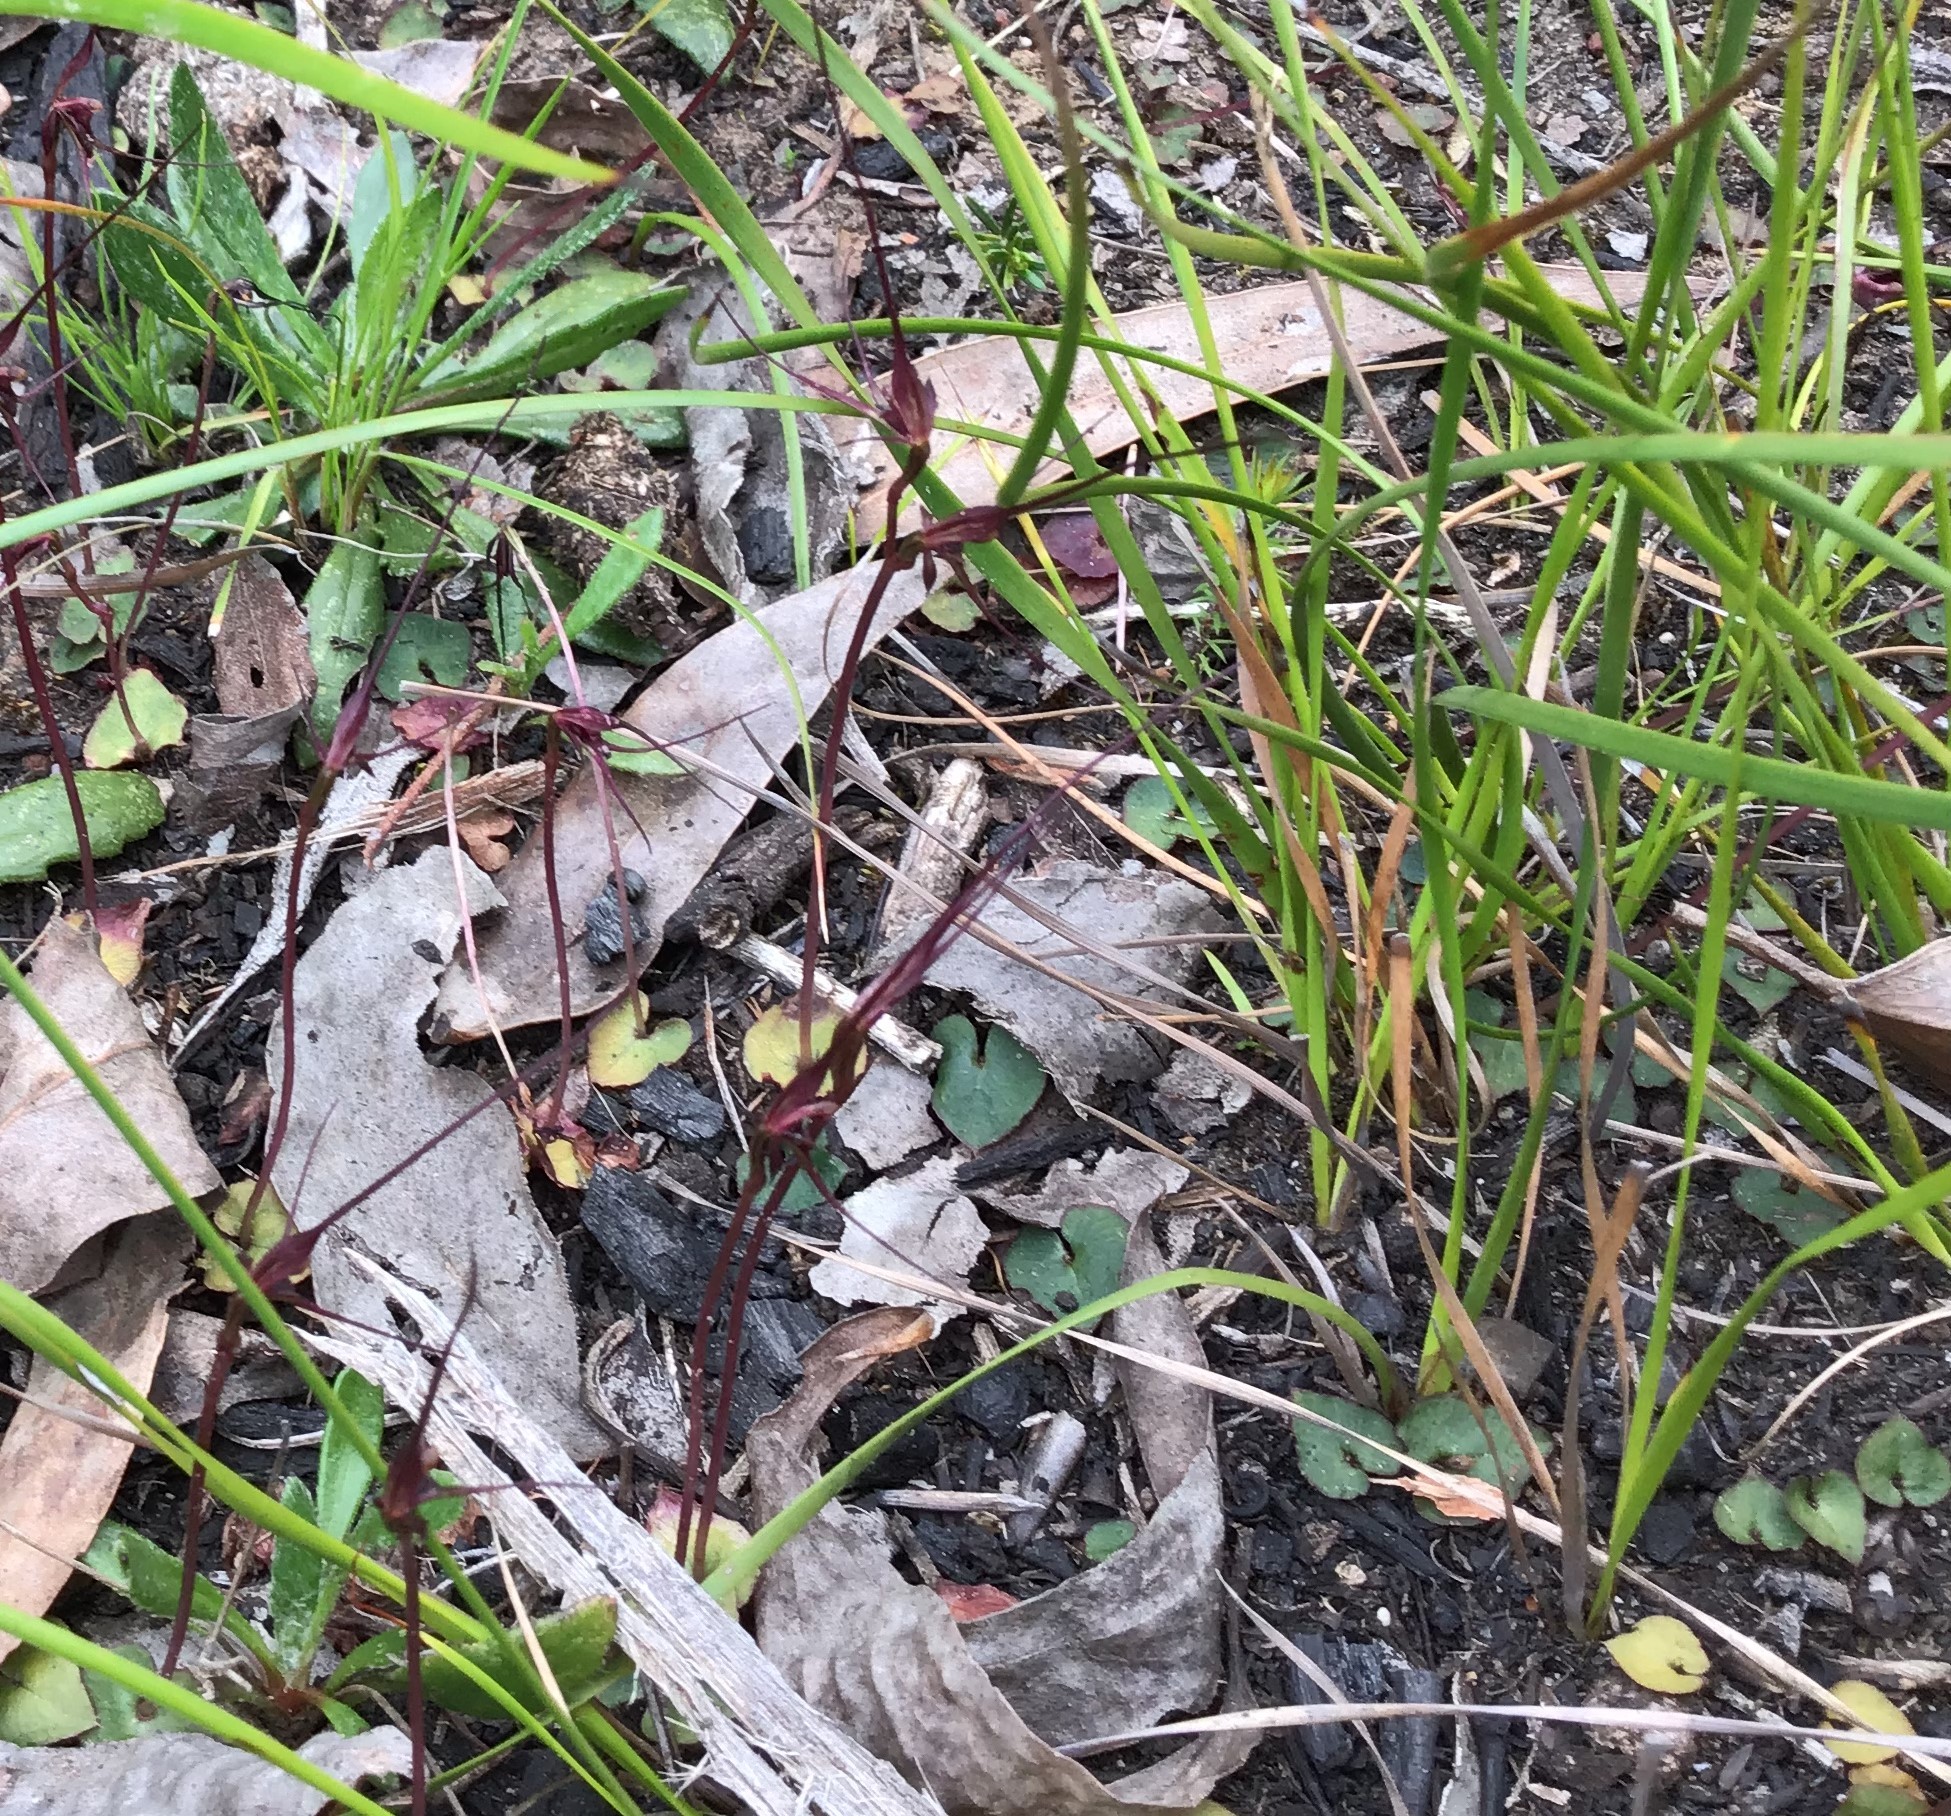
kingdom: Plantae
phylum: Tracheophyta
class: Liliopsida
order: Asparagales
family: Orchidaceae
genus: Acianthus
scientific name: Acianthus caudatus
